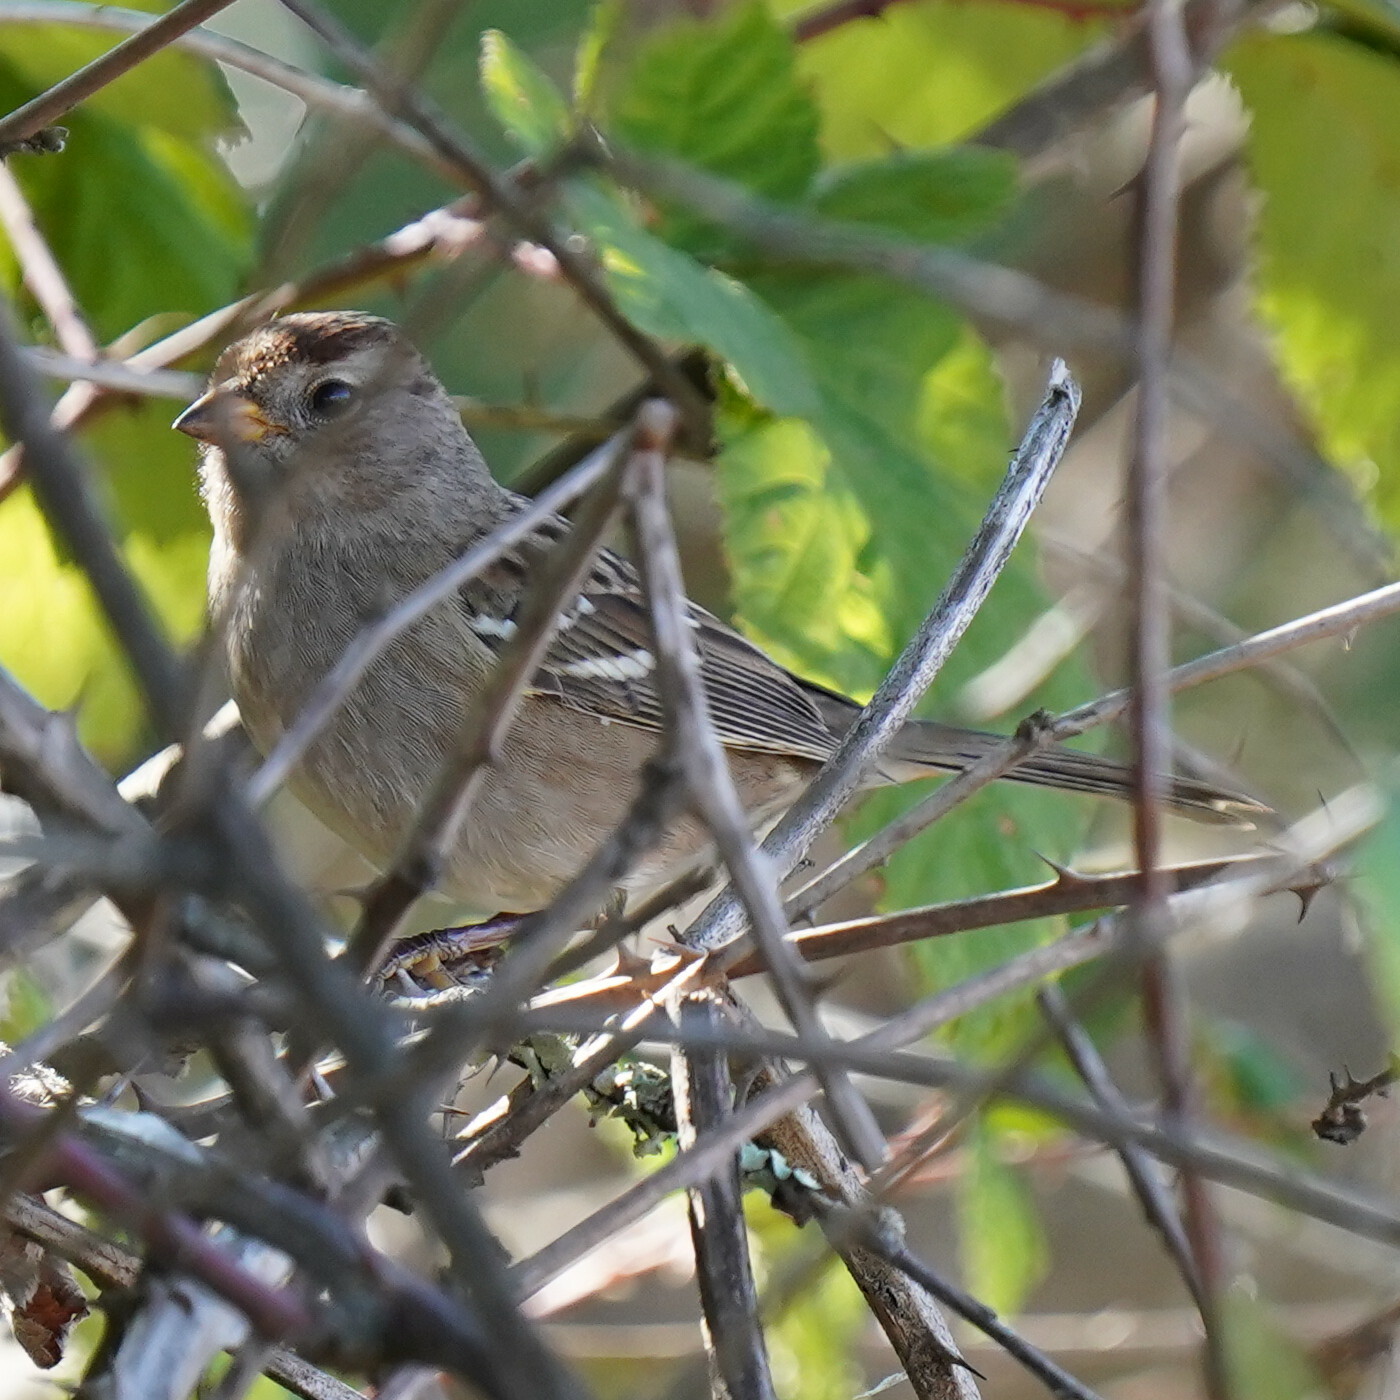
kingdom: Animalia
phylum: Chordata
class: Aves
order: Passeriformes
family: Passerellidae
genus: Zonotrichia
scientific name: Zonotrichia leucophrys
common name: White-crowned sparrow
